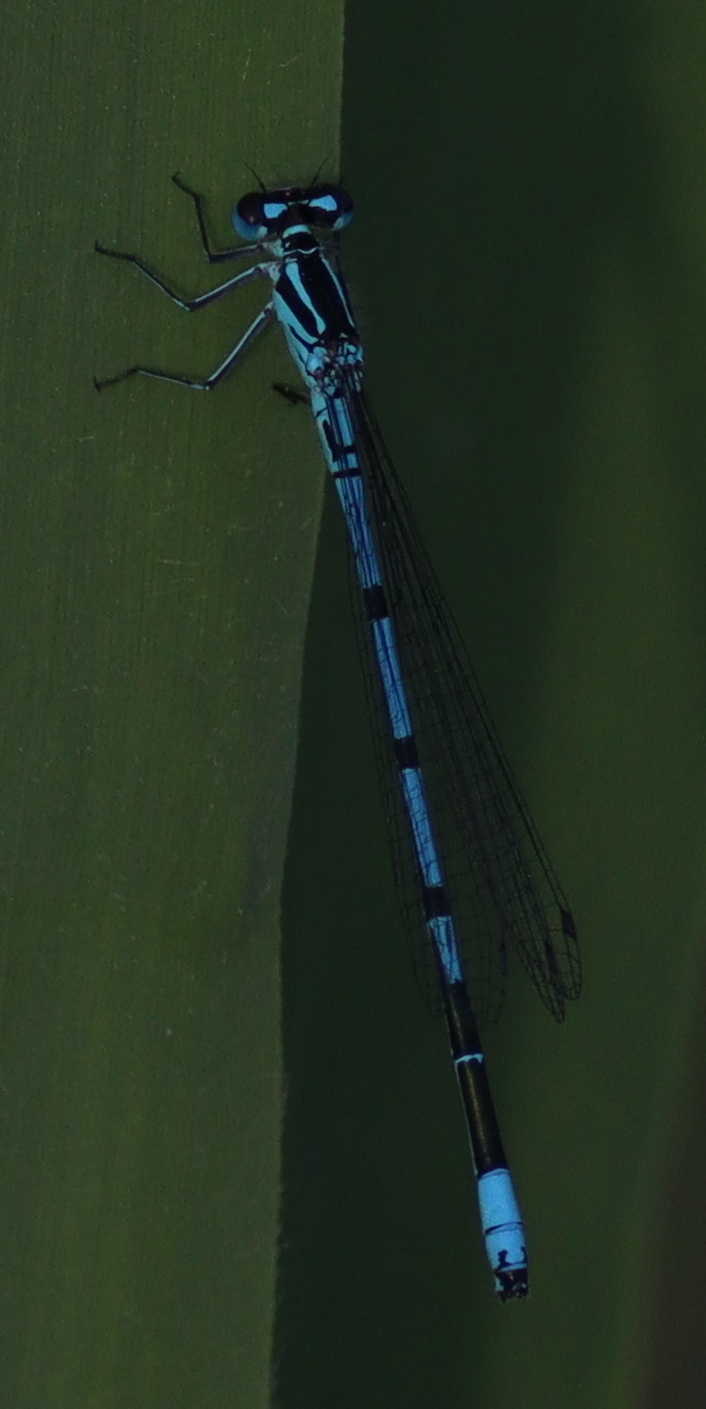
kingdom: Animalia
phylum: Arthropoda
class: Insecta
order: Odonata
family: Coenagrionidae
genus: Coenagrion
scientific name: Coenagrion puella
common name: Azure damselfly
